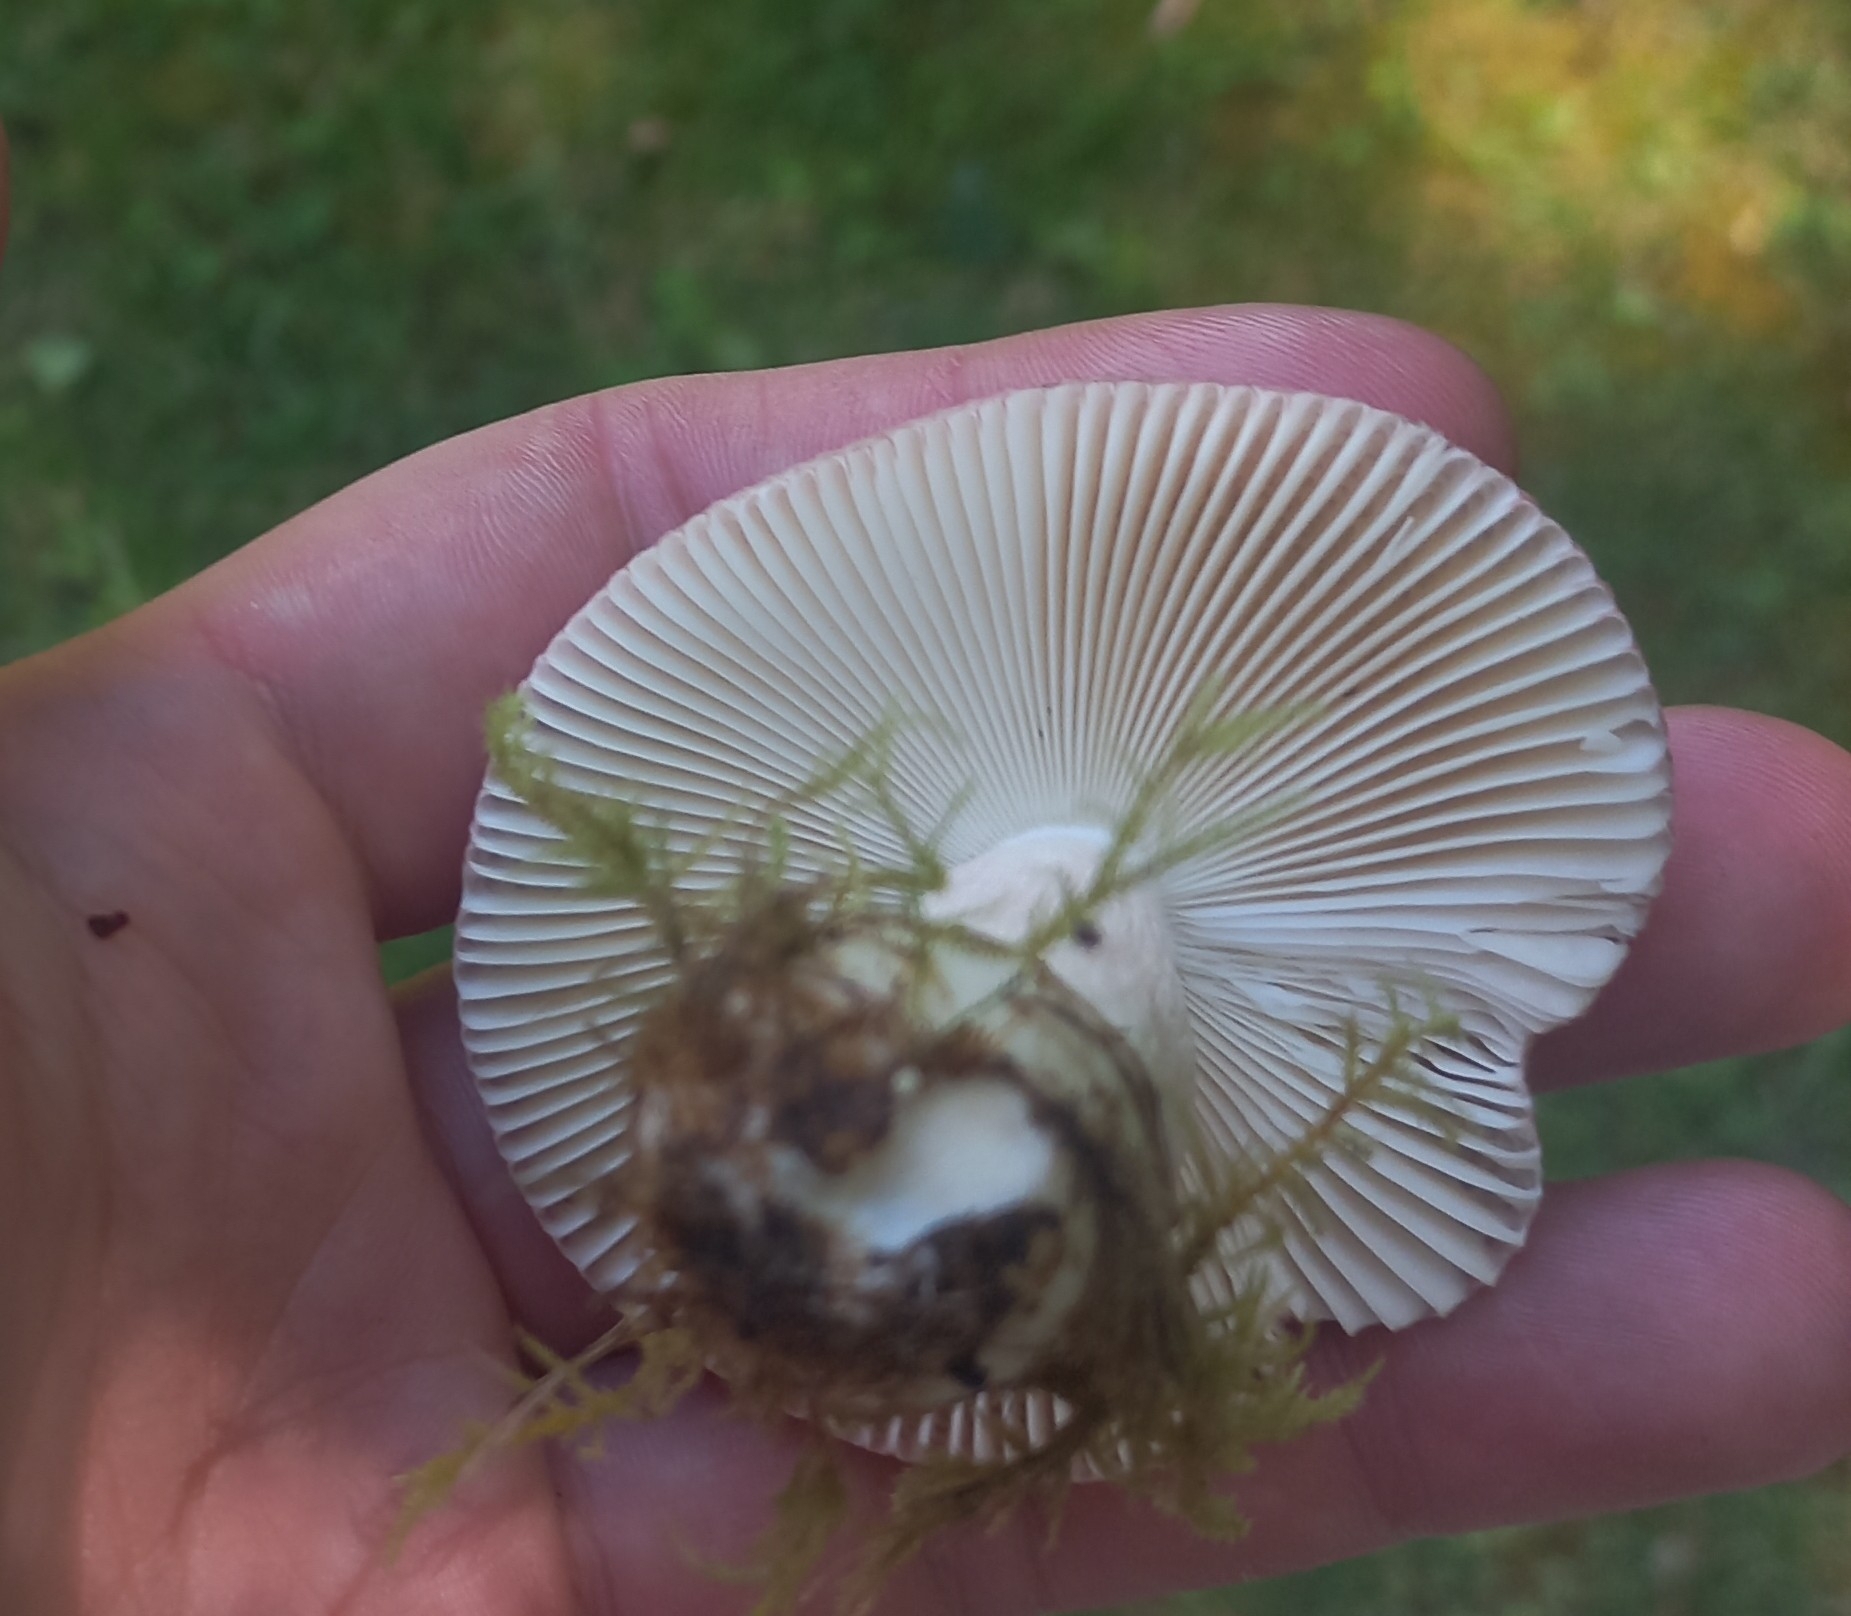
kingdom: Fungi
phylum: Basidiomycota
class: Agaricomycetes
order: Russulales
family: Russulaceae
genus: Russula
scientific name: Russula nitida
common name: Purple swamp brittlegill
